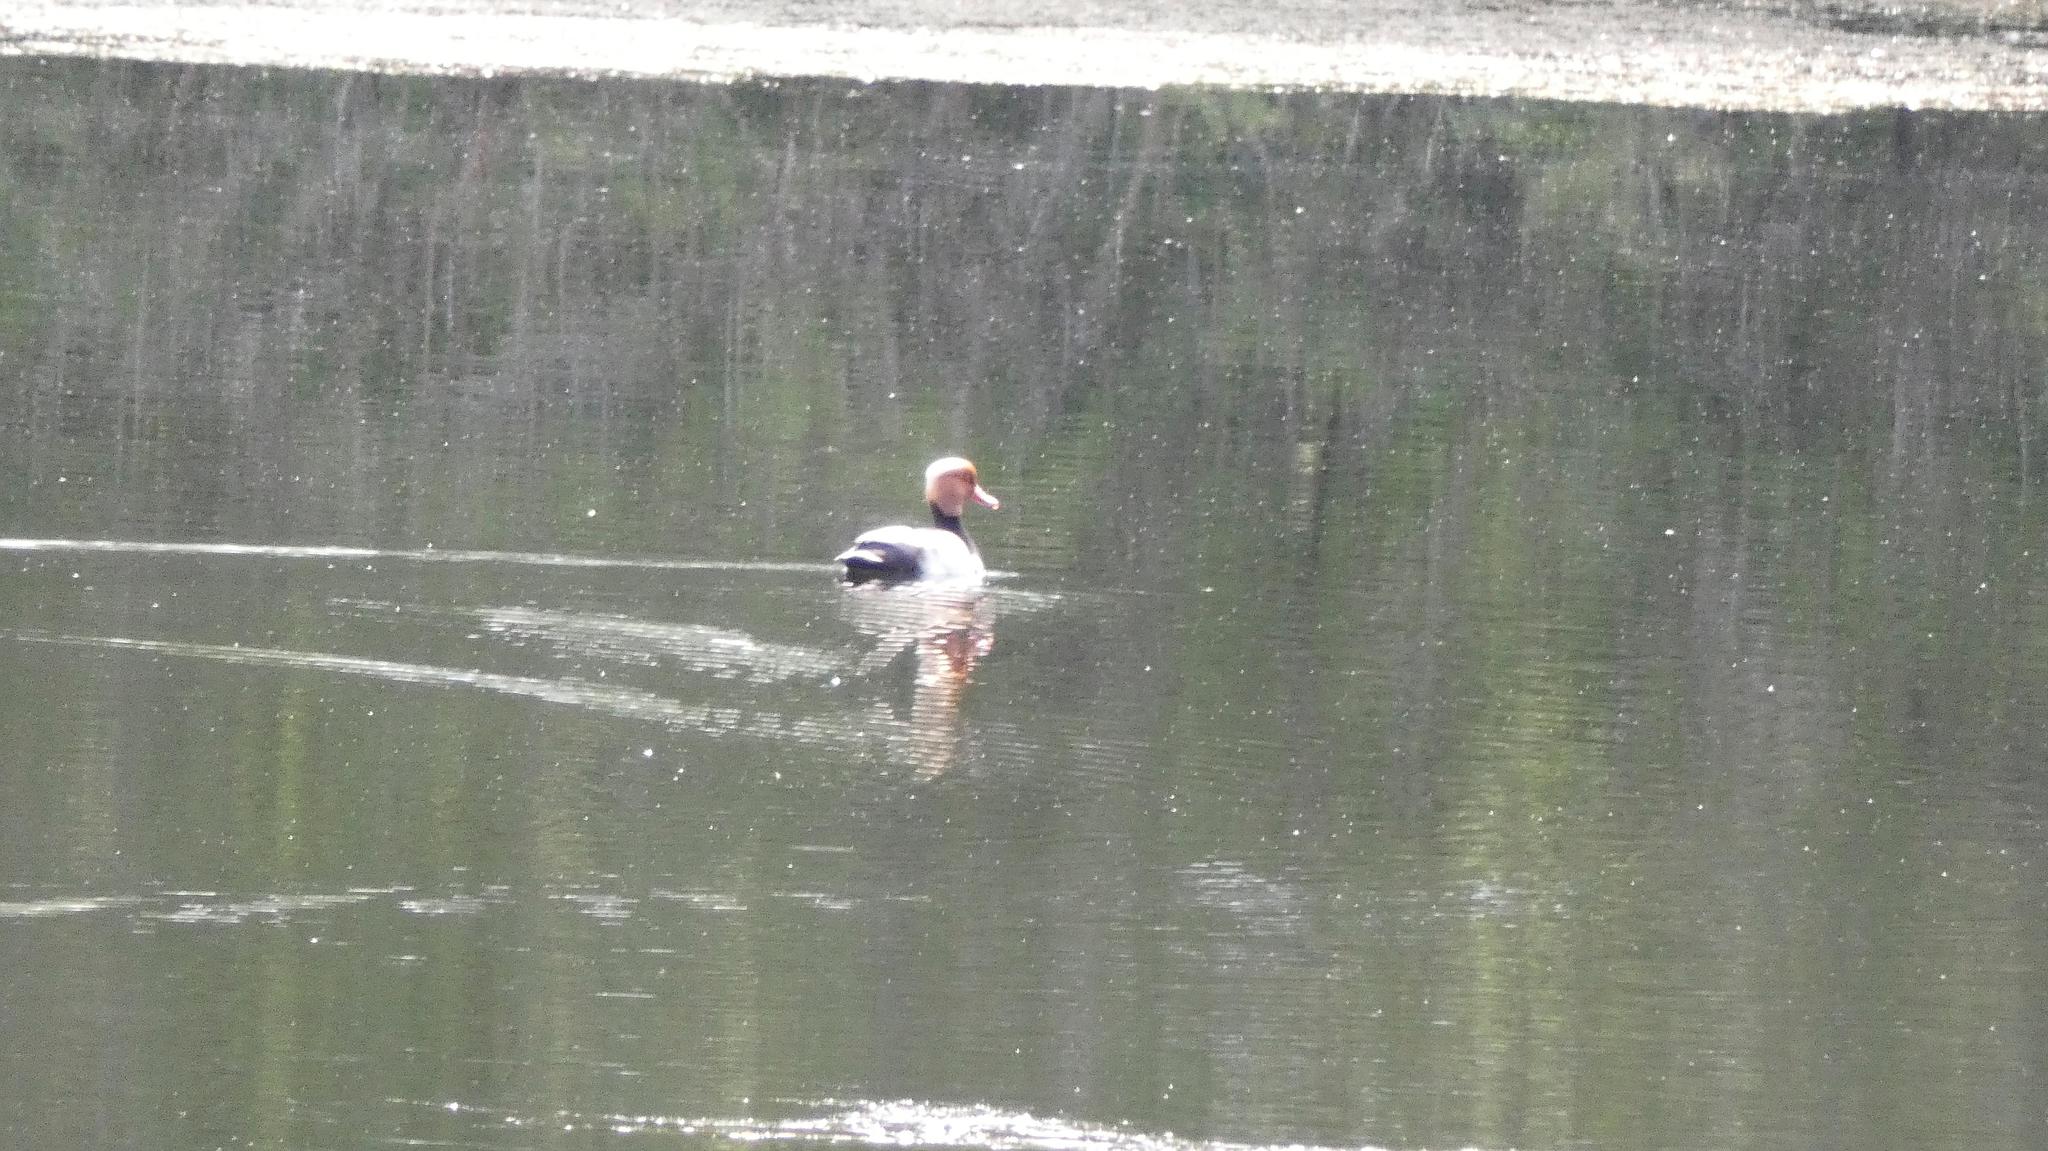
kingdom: Animalia
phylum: Chordata
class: Aves
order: Anseriformes
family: Anatidae
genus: Netta
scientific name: Netta rufina
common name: Red-crested pochard
